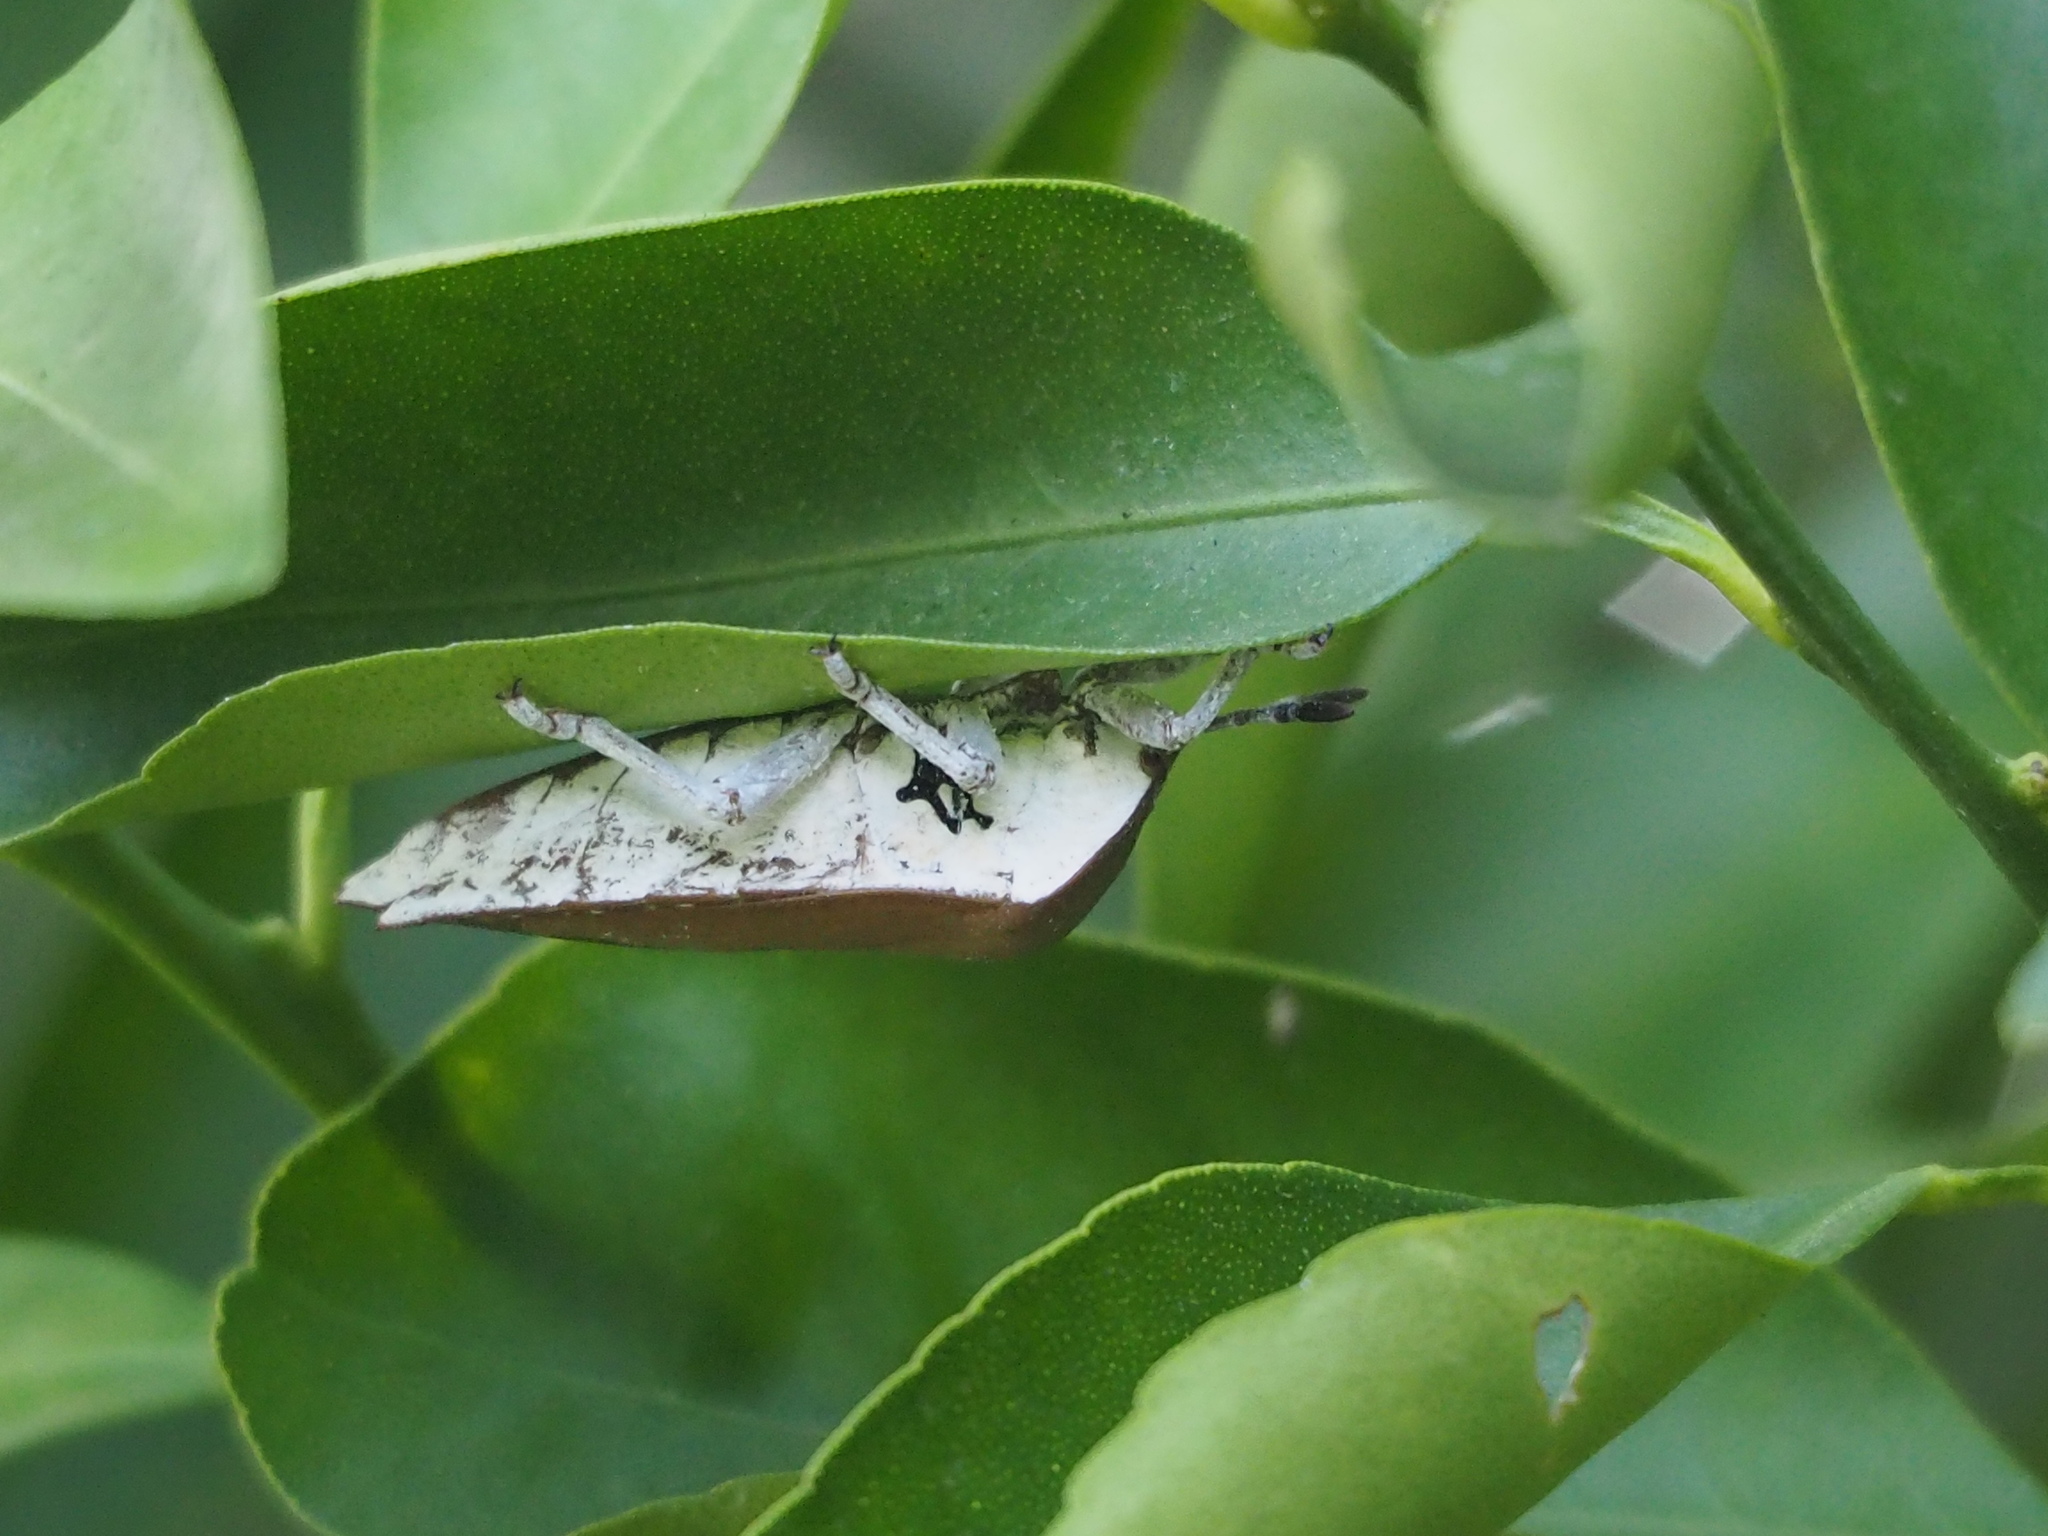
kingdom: Animalia
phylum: Arthropoda
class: Insecta
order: Hemiptera
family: Tessaratomidae
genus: Tessaratoma
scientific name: Tessaratoma papillosa
